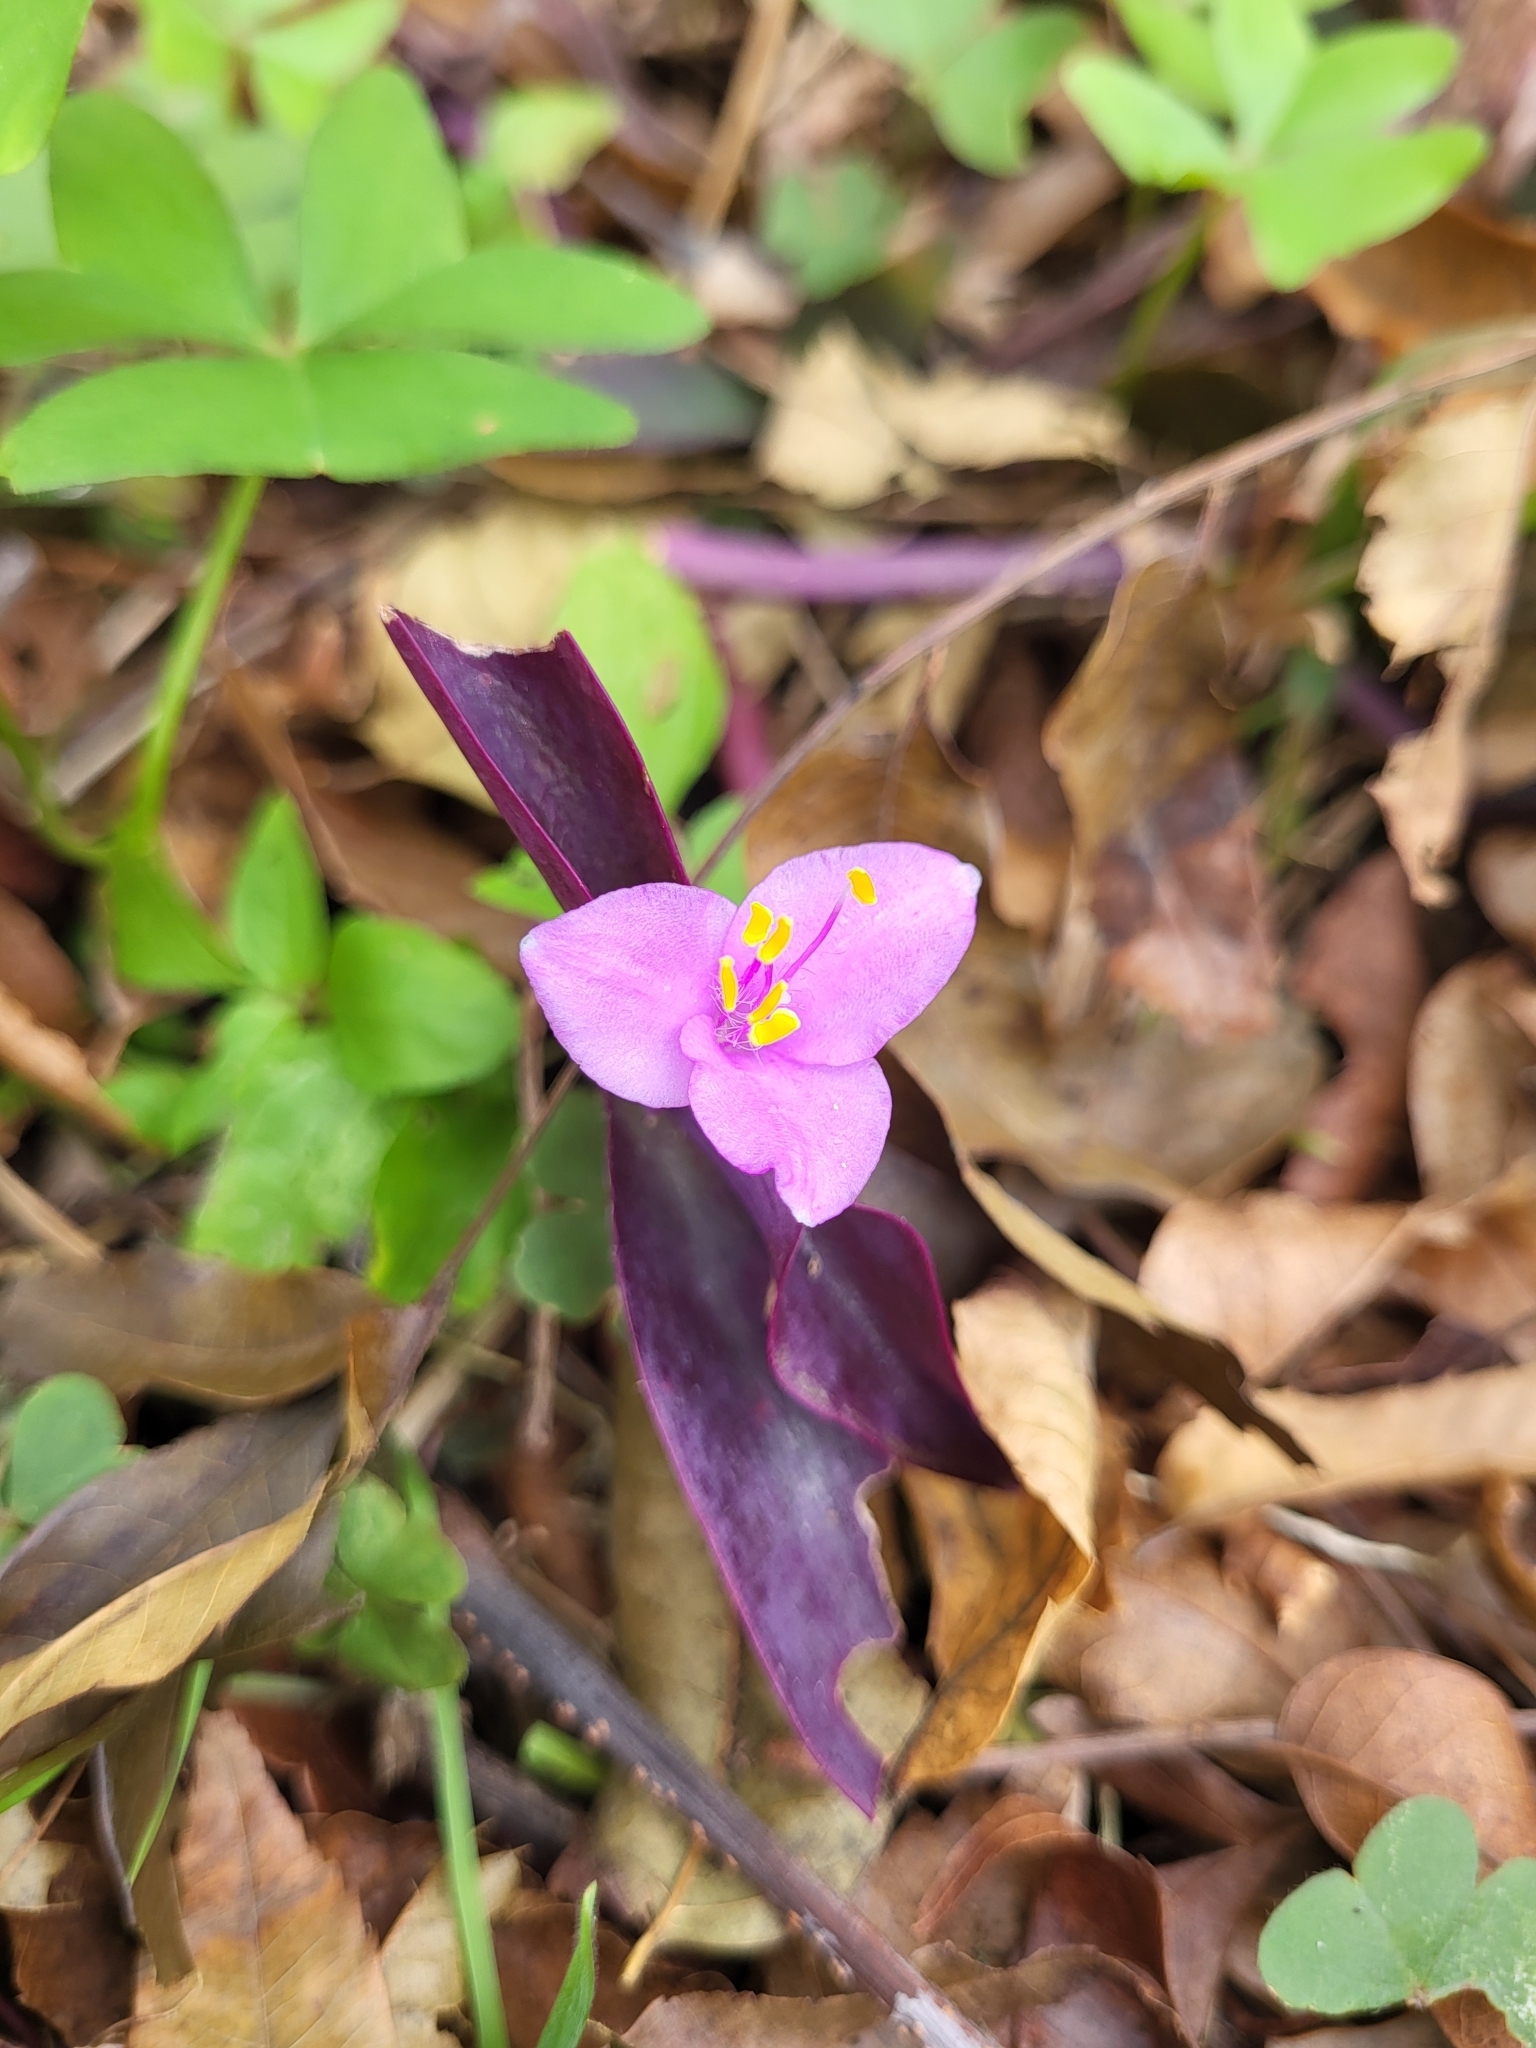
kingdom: Plantae
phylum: Tracheophyta
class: Liliopsida
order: Commelinales
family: Commelinaceae
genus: Tradescantia
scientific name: Tradescantia pallida
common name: Purpleheart
